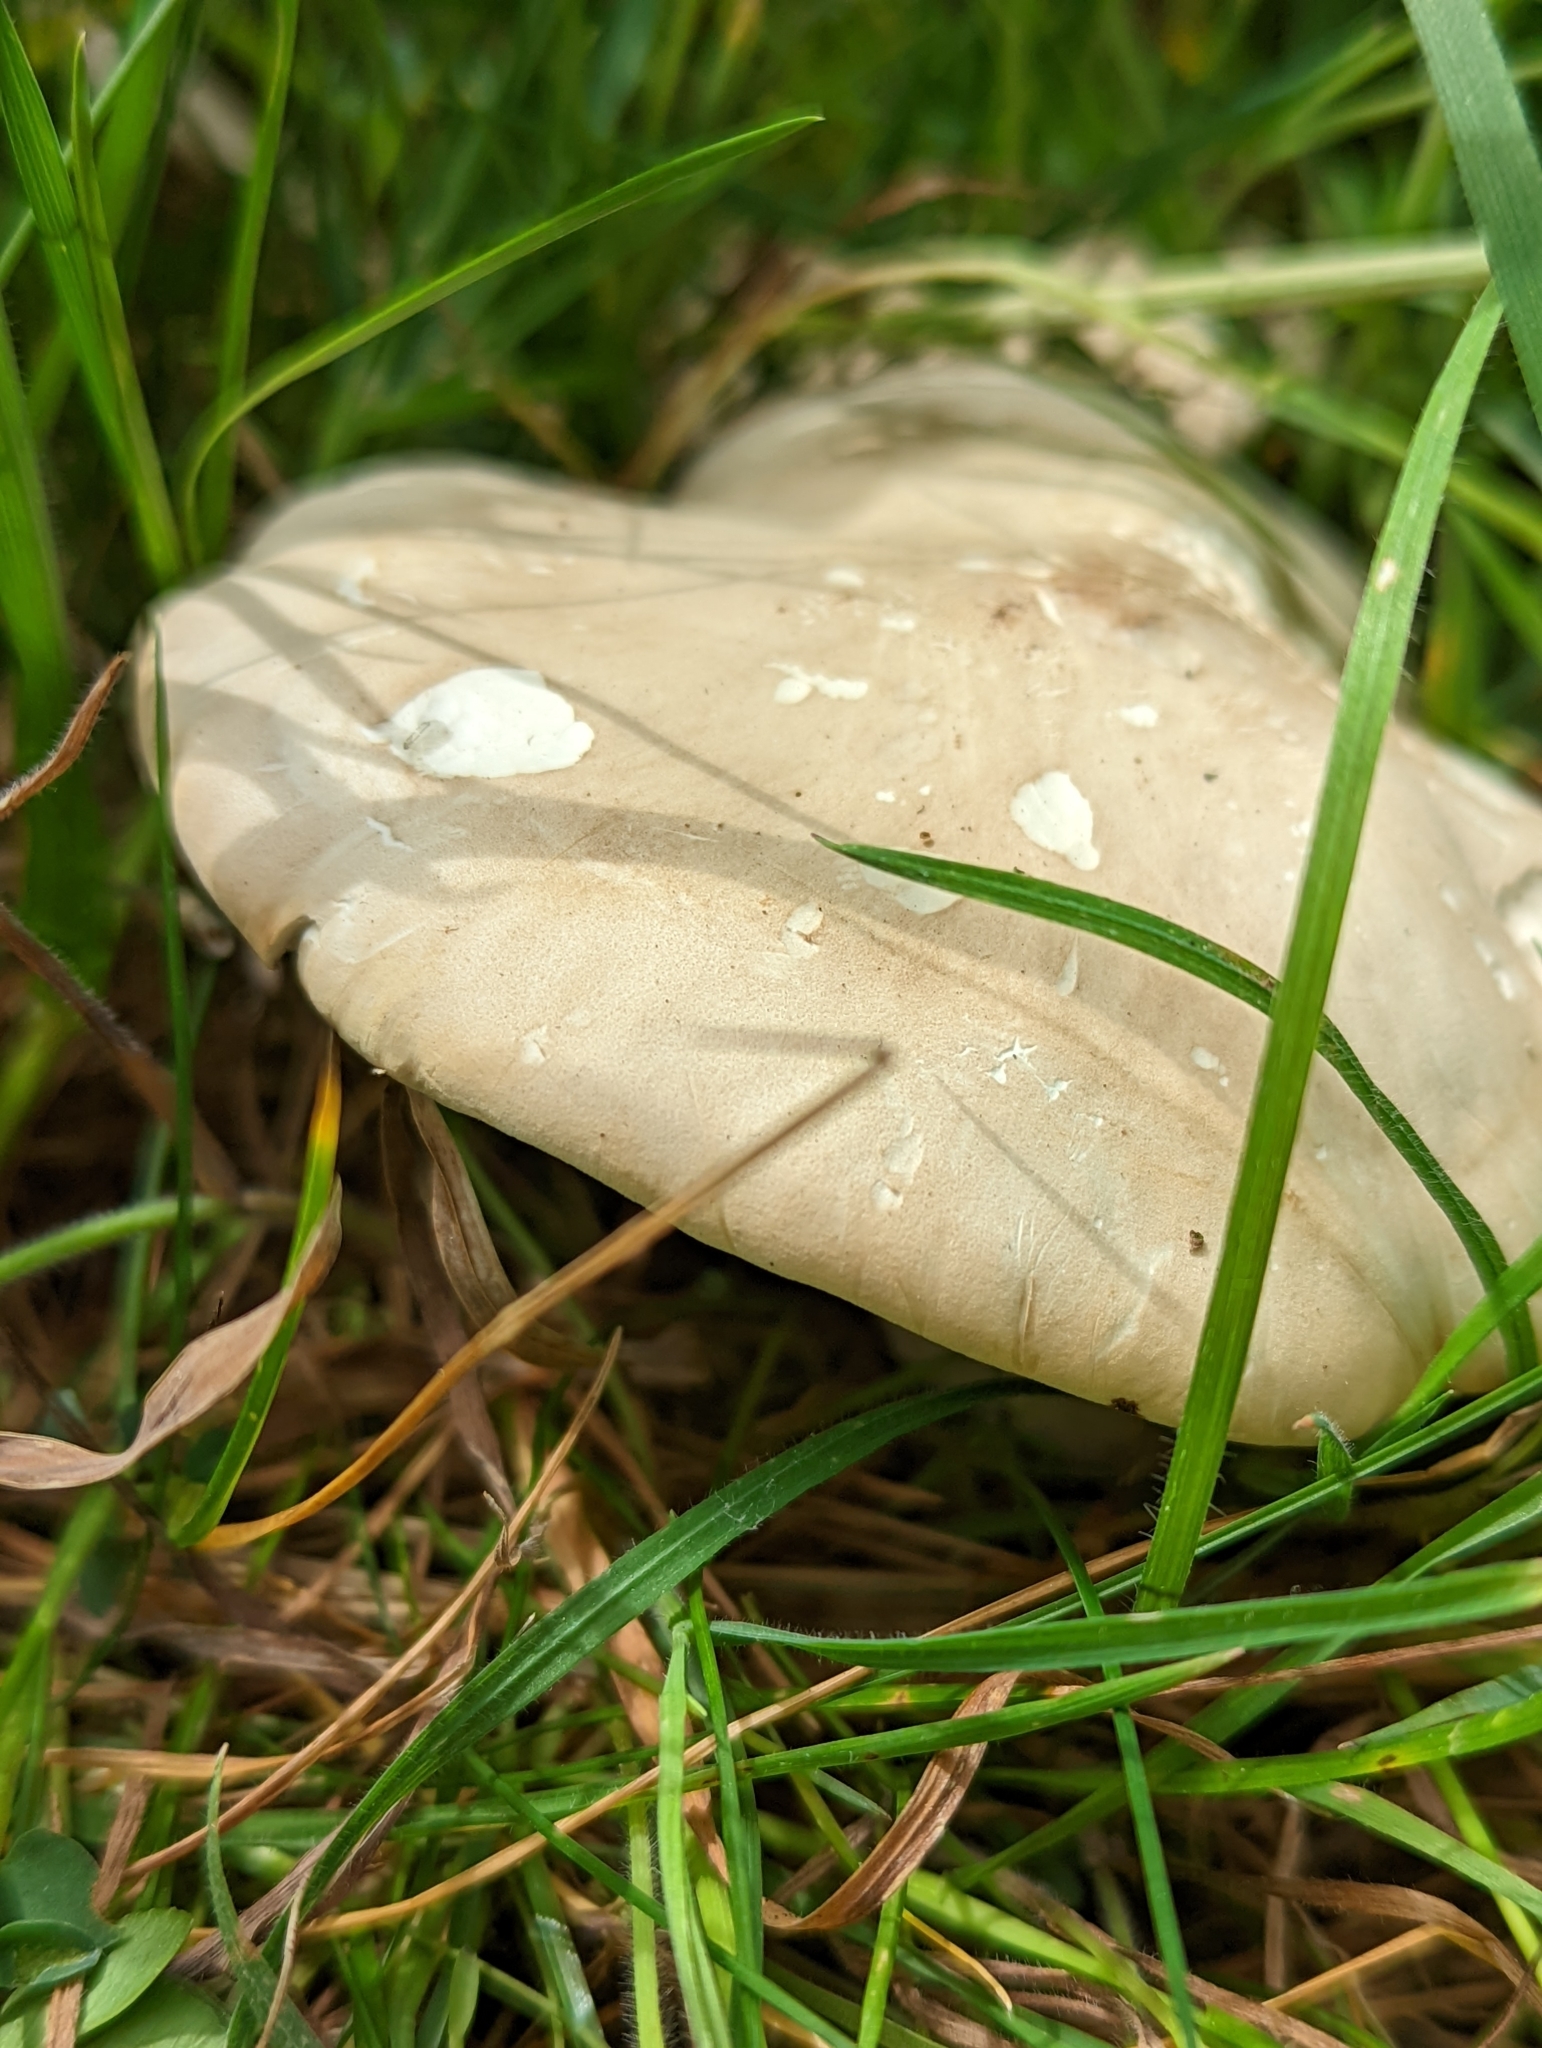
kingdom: Fungi
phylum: Basidiomycota
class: Agaricomycetes
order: Agaricales
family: Lyophyllaceae
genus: Calocybe
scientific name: Calocybe gambosa
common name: St. george's mushroom
